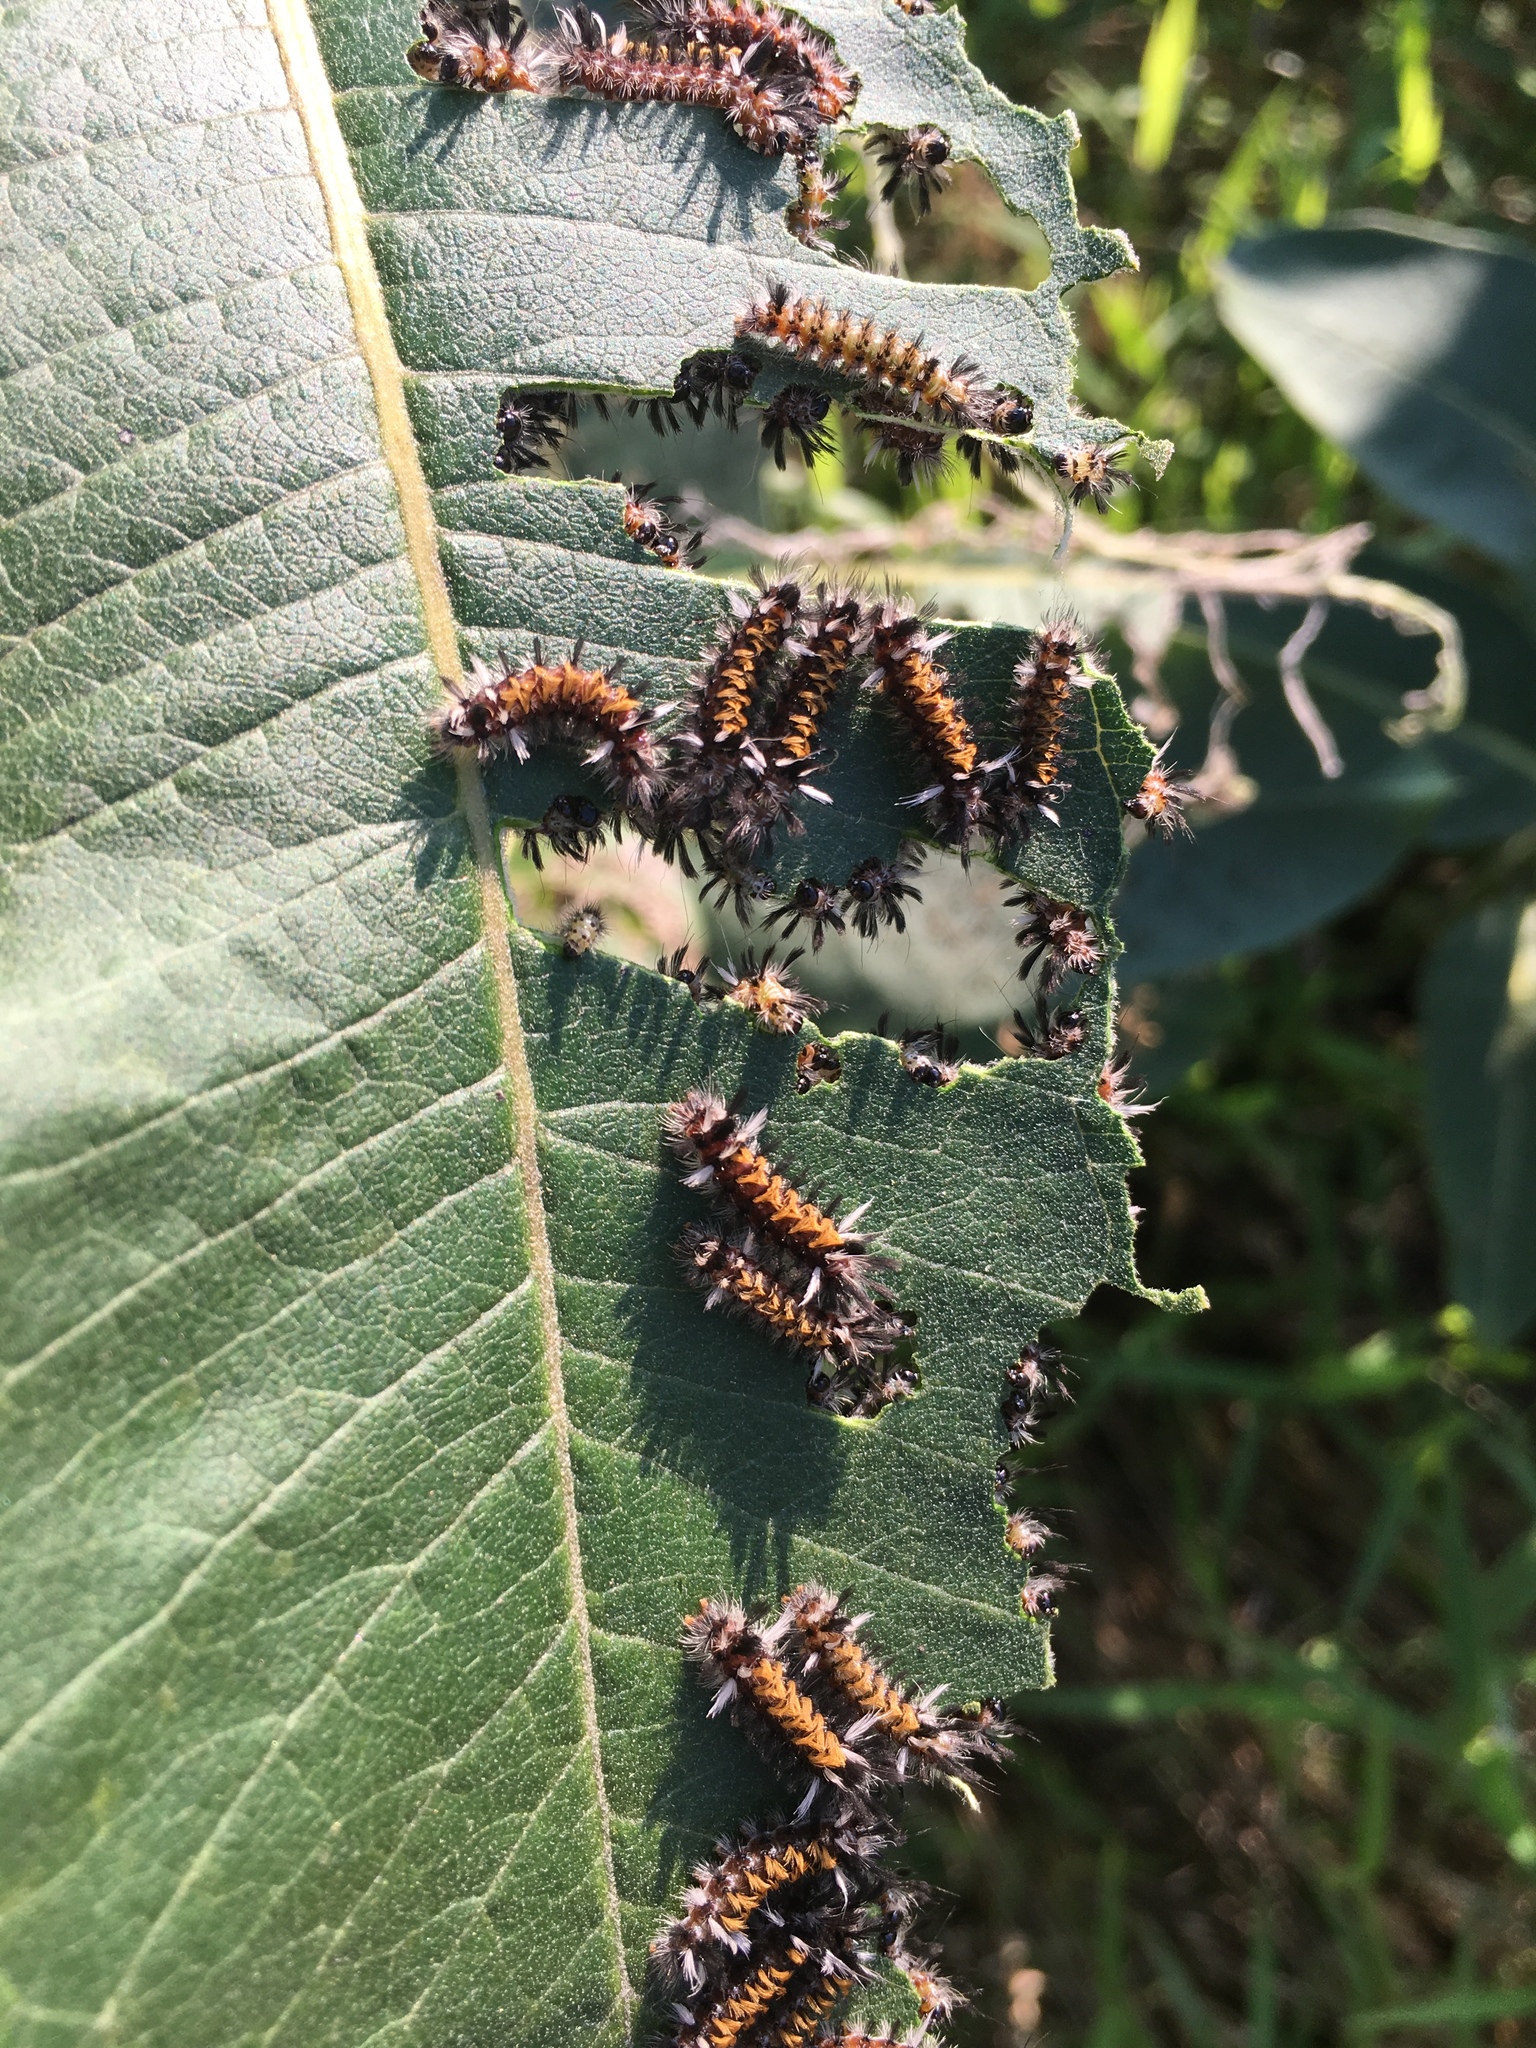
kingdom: Animalia
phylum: Arthropoda
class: Insecta
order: Lepidoptera
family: Erebidae
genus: Euchaetes
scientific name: Euchaetes egle
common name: Milkweed tussock moth
